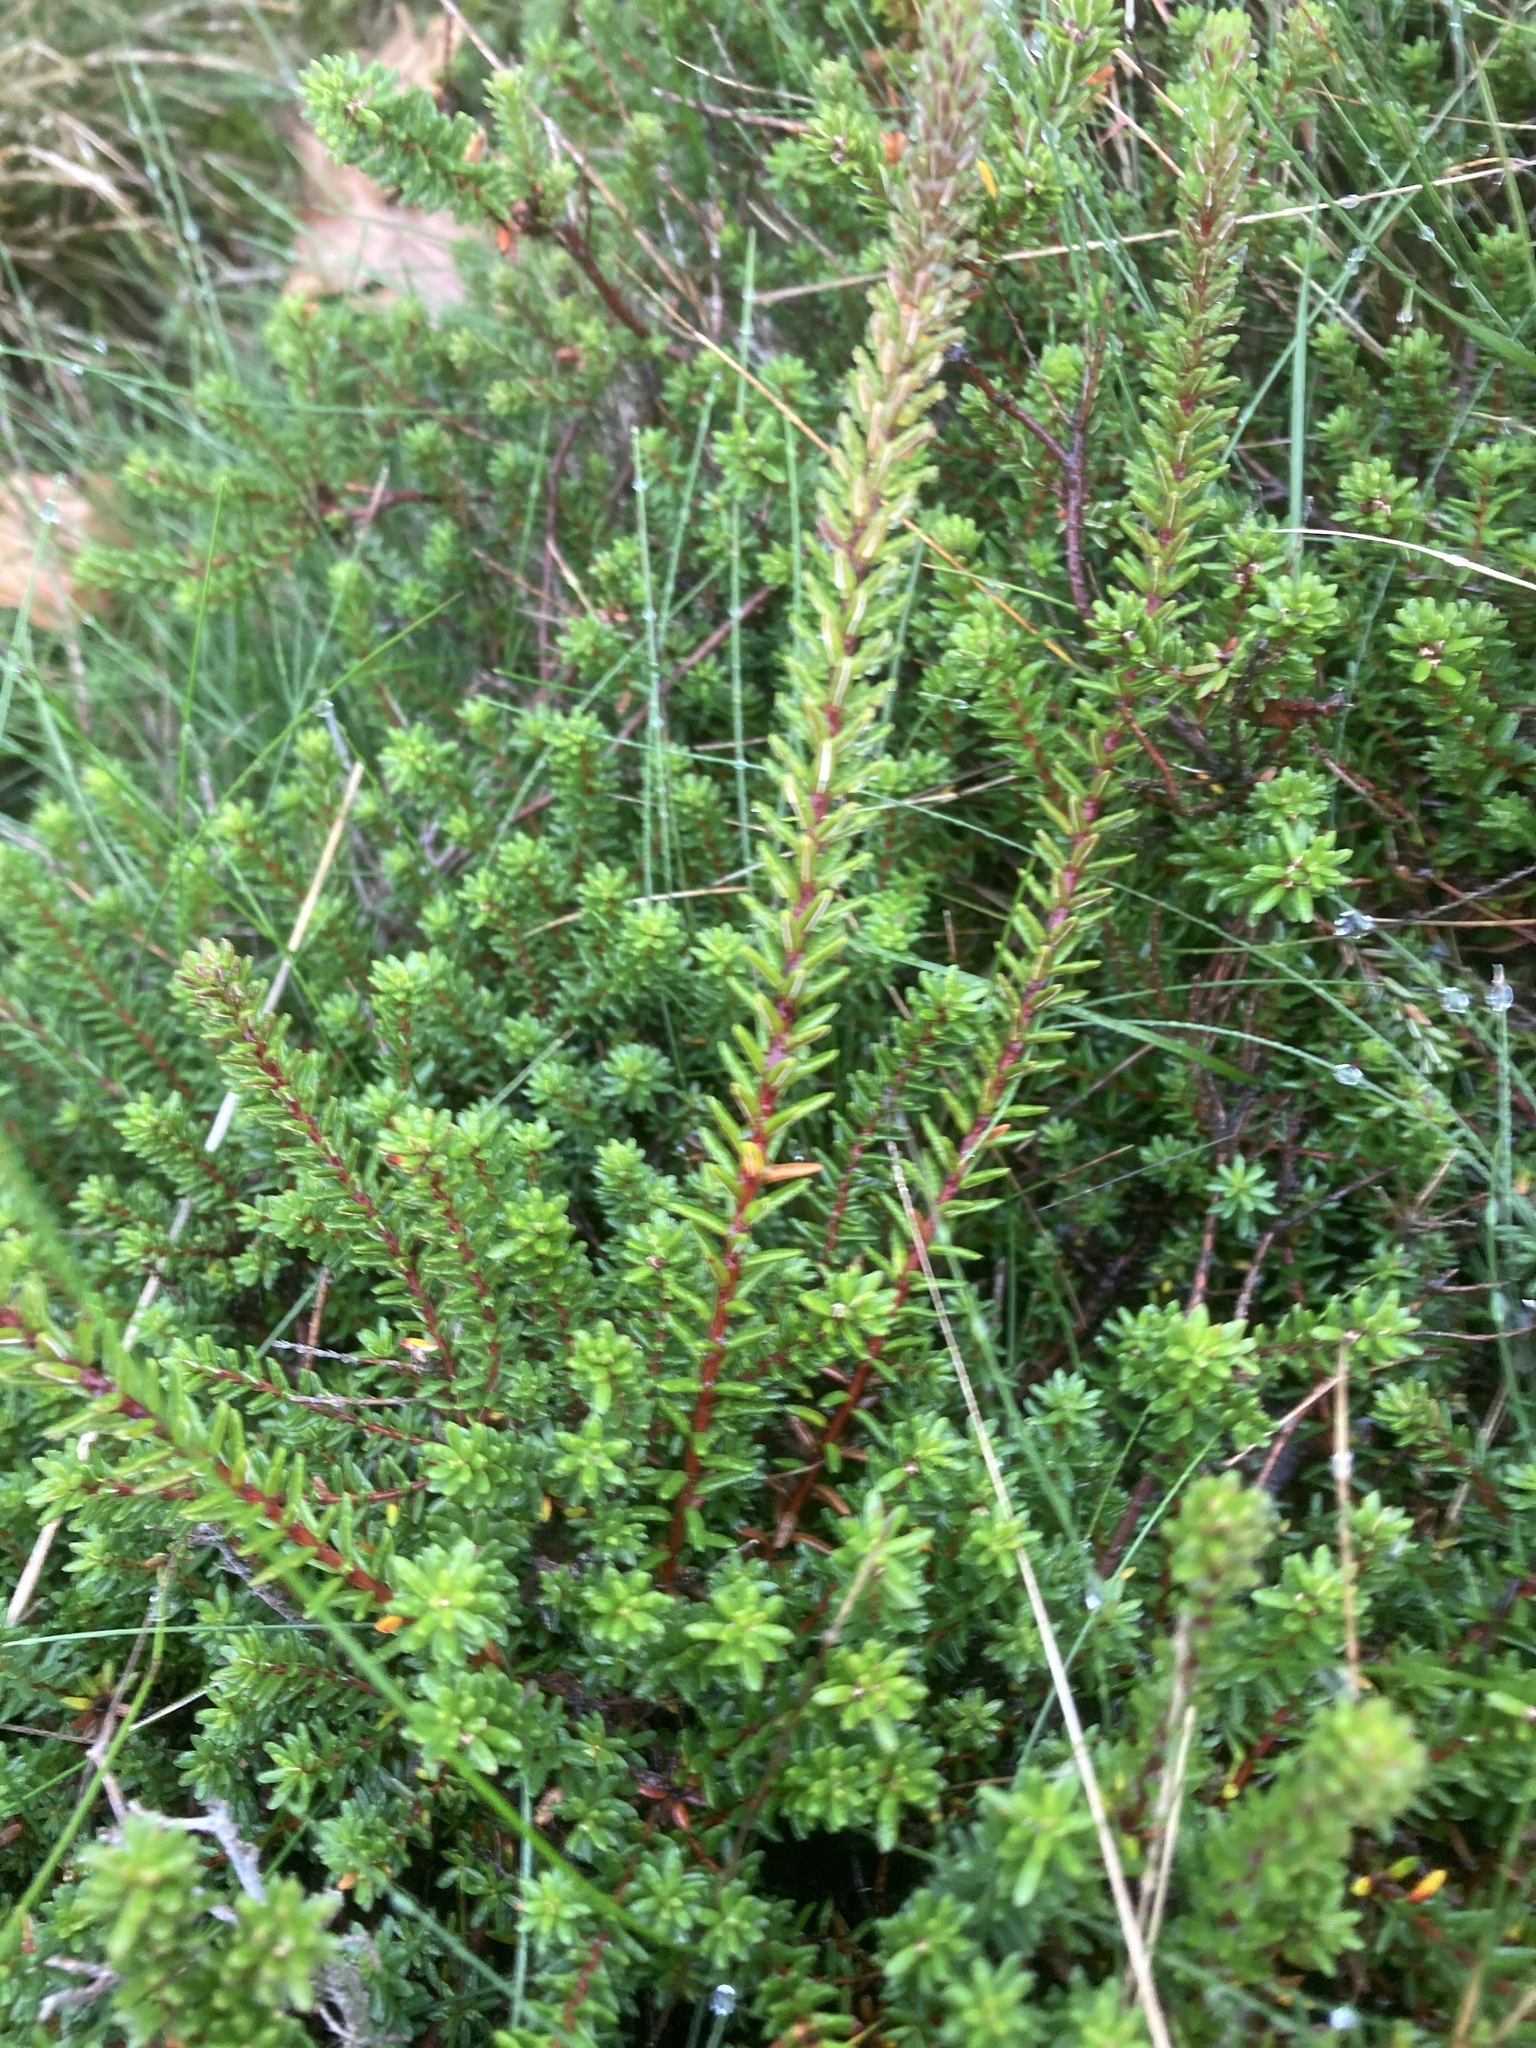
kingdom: Plantae
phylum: Tracheophyta
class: Magnoliopsida
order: Ericales
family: Ericaceae
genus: Empetrum
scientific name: Empetrum nigrum
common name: Black crowberry
